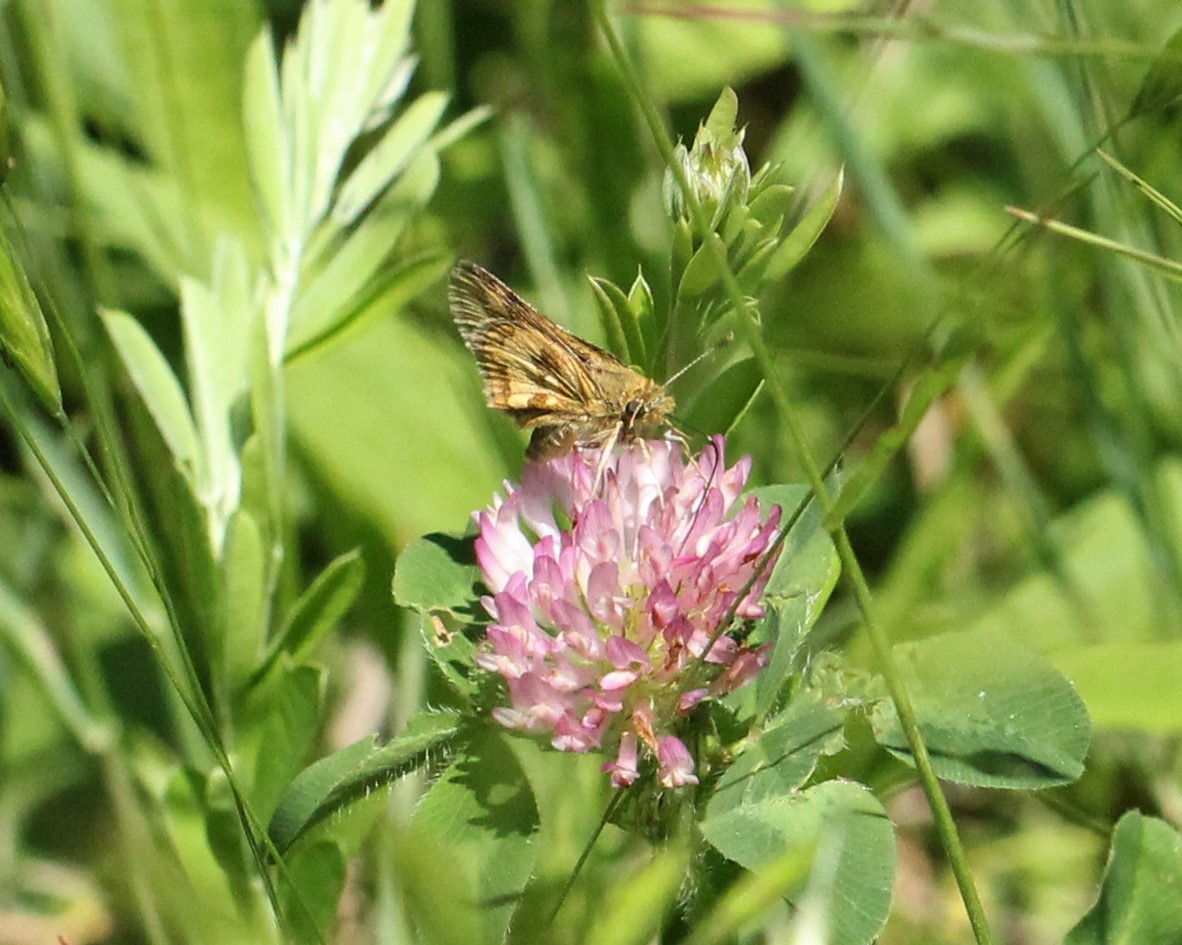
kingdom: Animalia
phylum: Arthropoda
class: Insecta
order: Lepidoptera
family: Hesperiidae
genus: Polites
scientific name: Polites coras
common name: Peck's skipper
